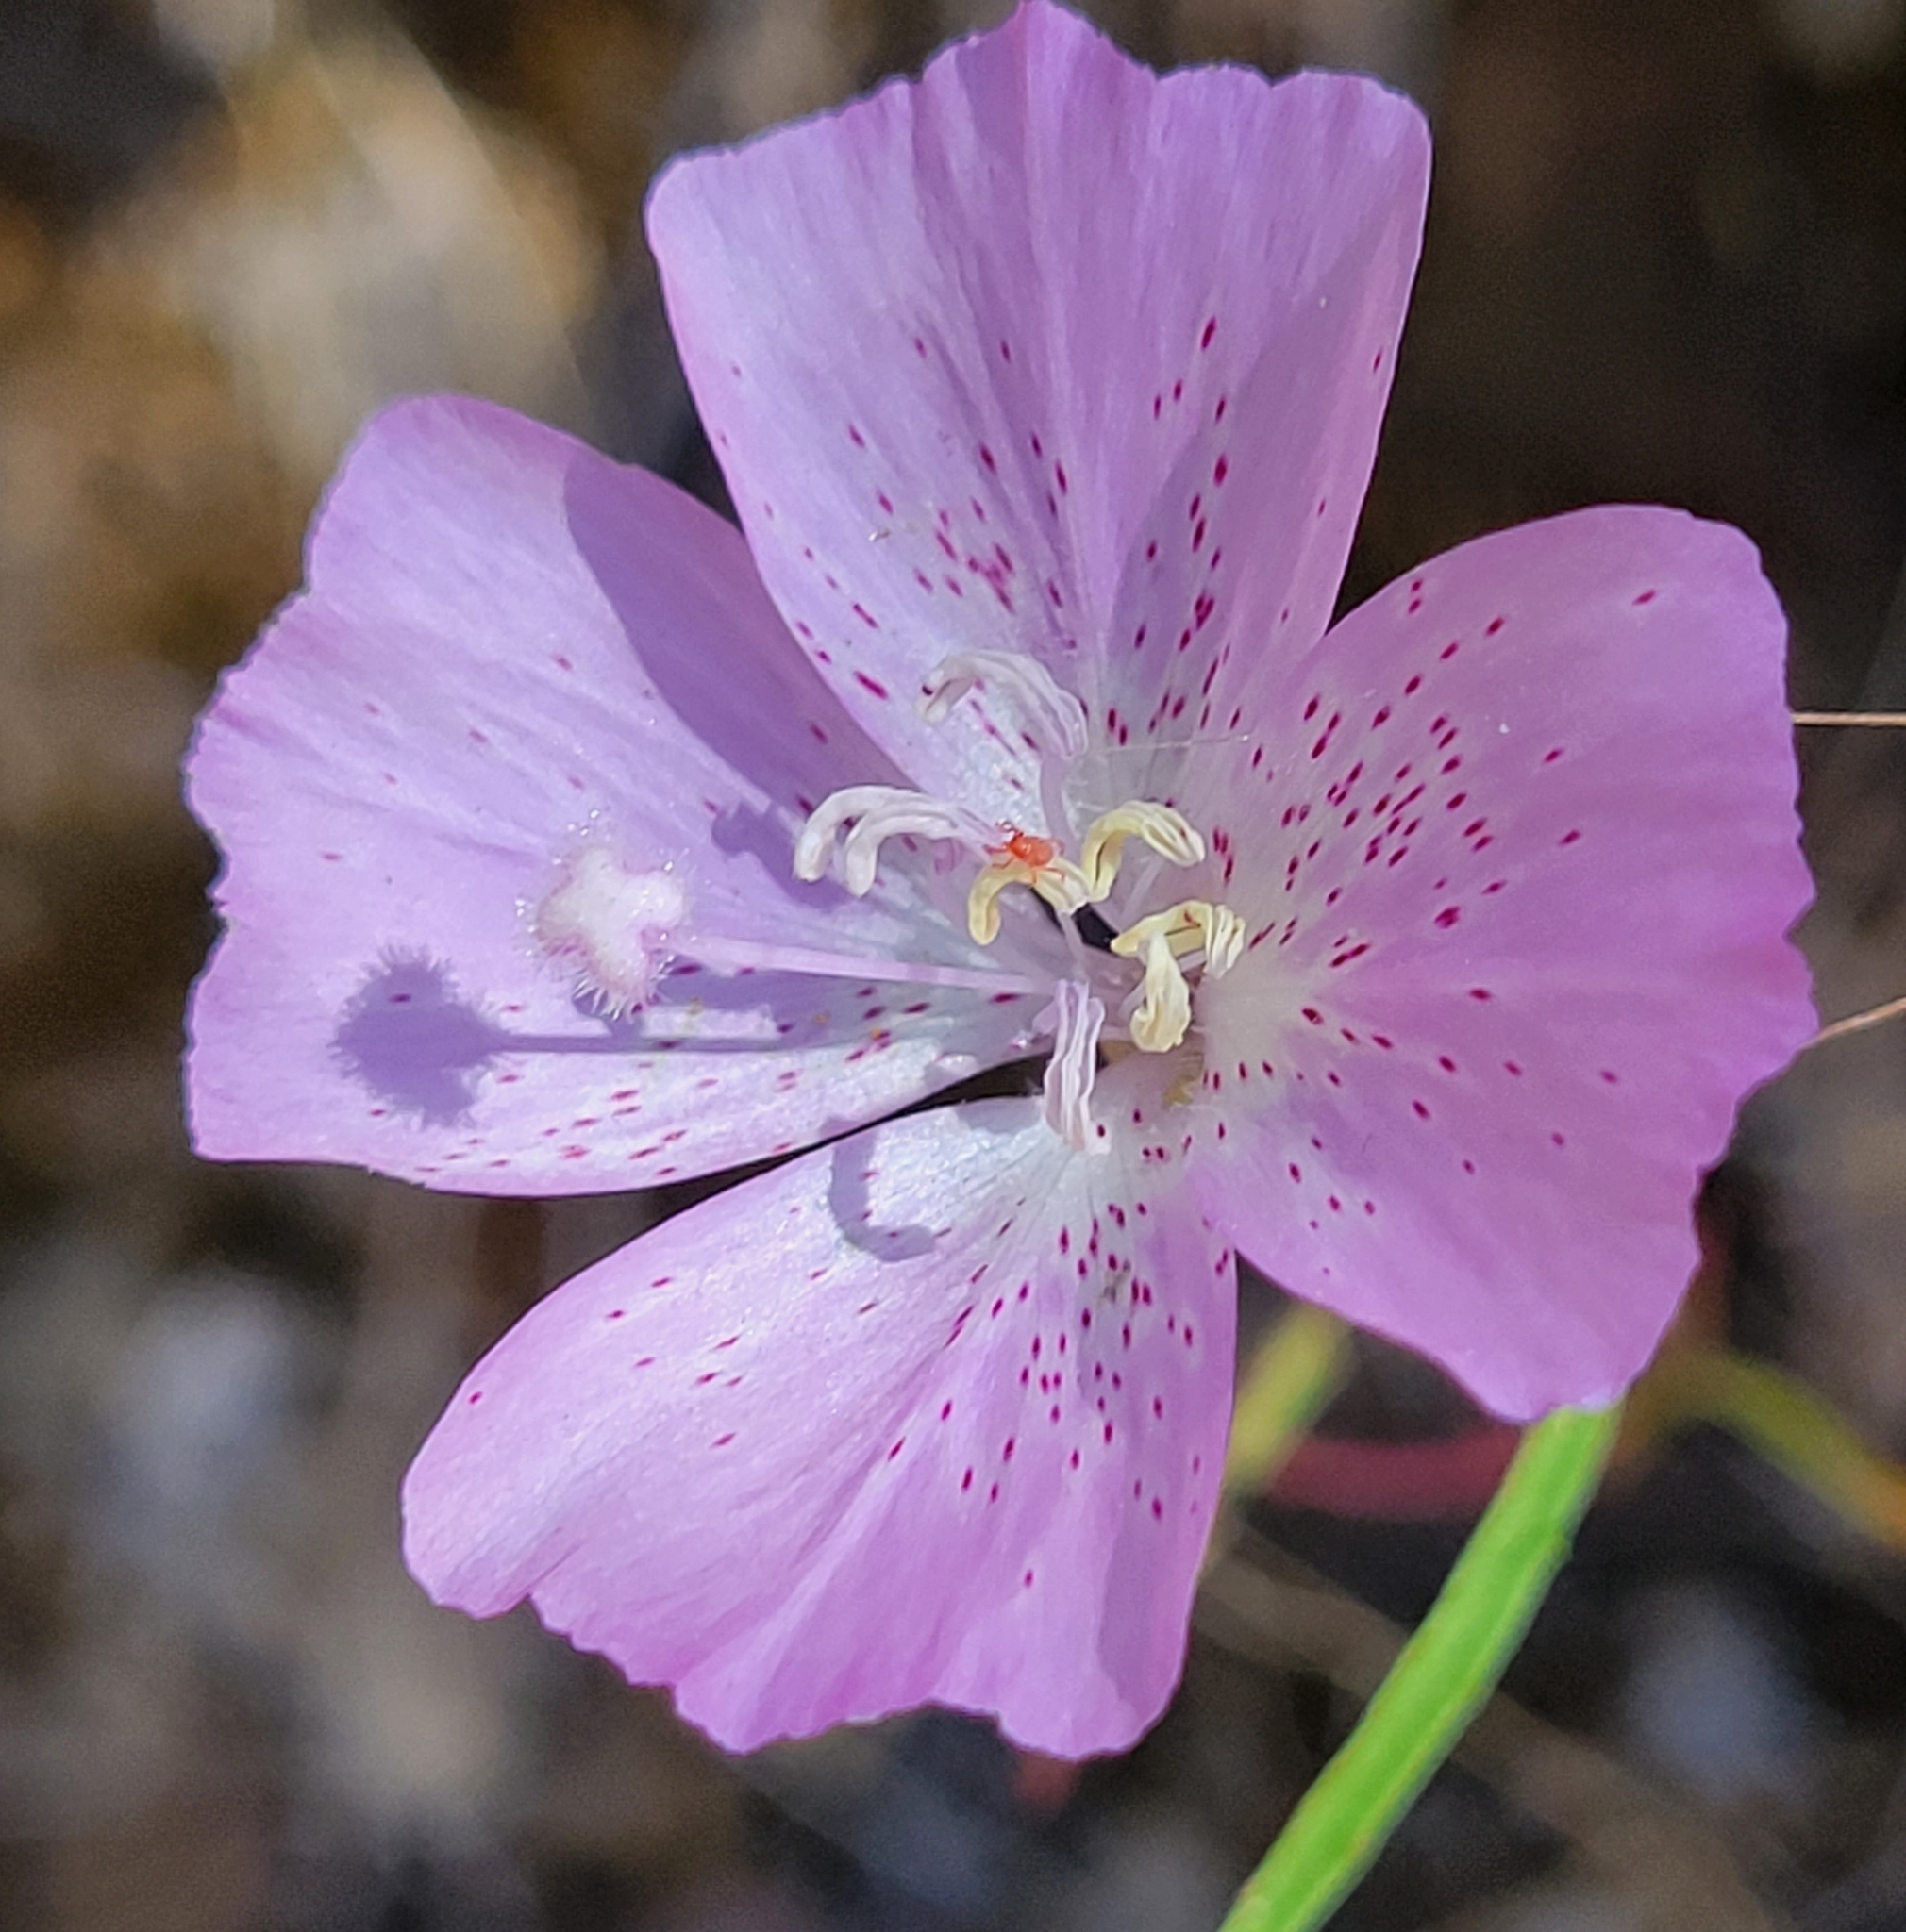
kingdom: Plantae
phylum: Tracheophyta
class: Magnoliopsida
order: Myrtales
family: Onagraceae
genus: Clarkia
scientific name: Clarkia bottae
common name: Punch-bowl godetia
